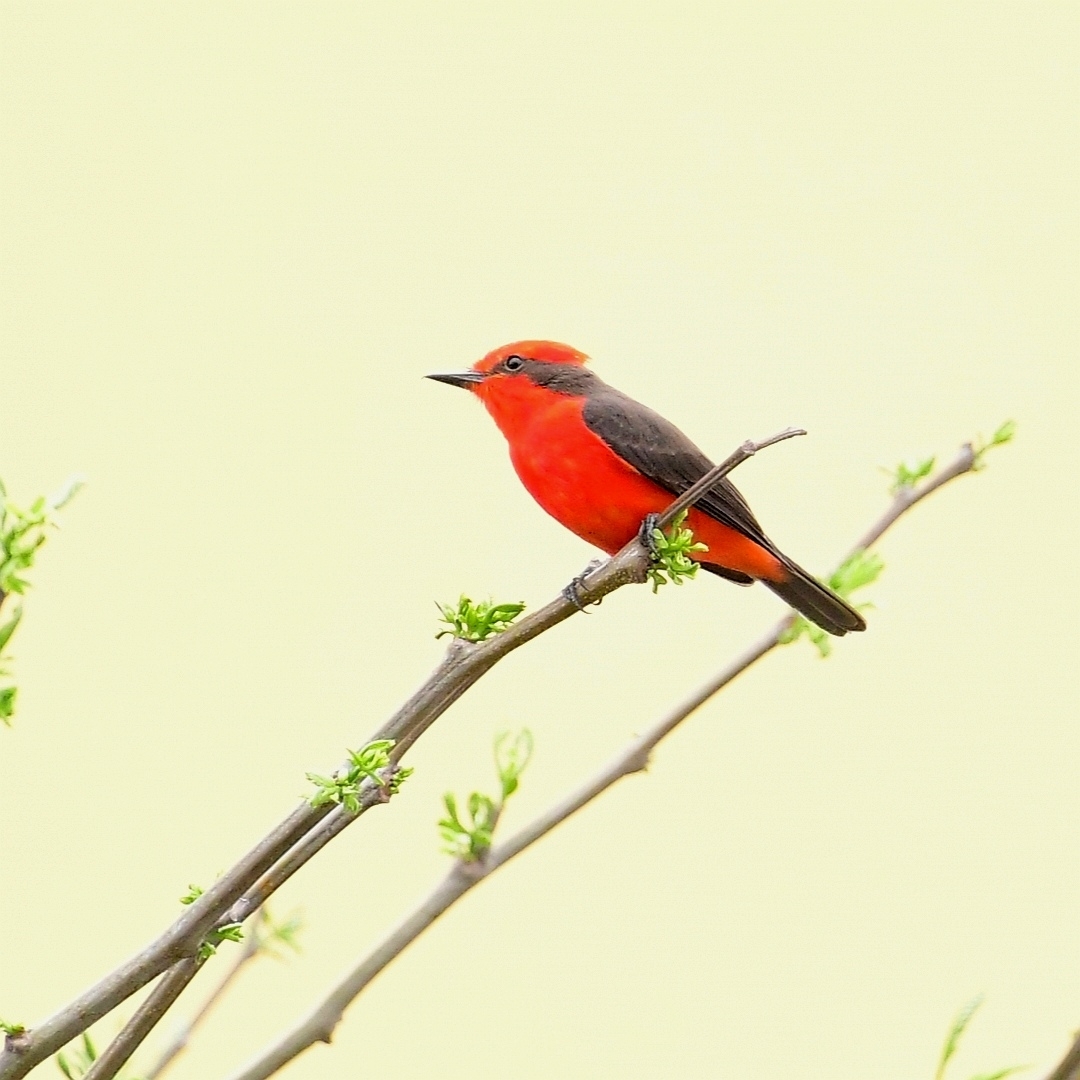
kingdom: Animalia
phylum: Chordata
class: Aves
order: Passeriformes
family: Tyrannidae
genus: Pyrocephalus
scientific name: Pyrocephalus rubinus
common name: Vermilion flycatcher
